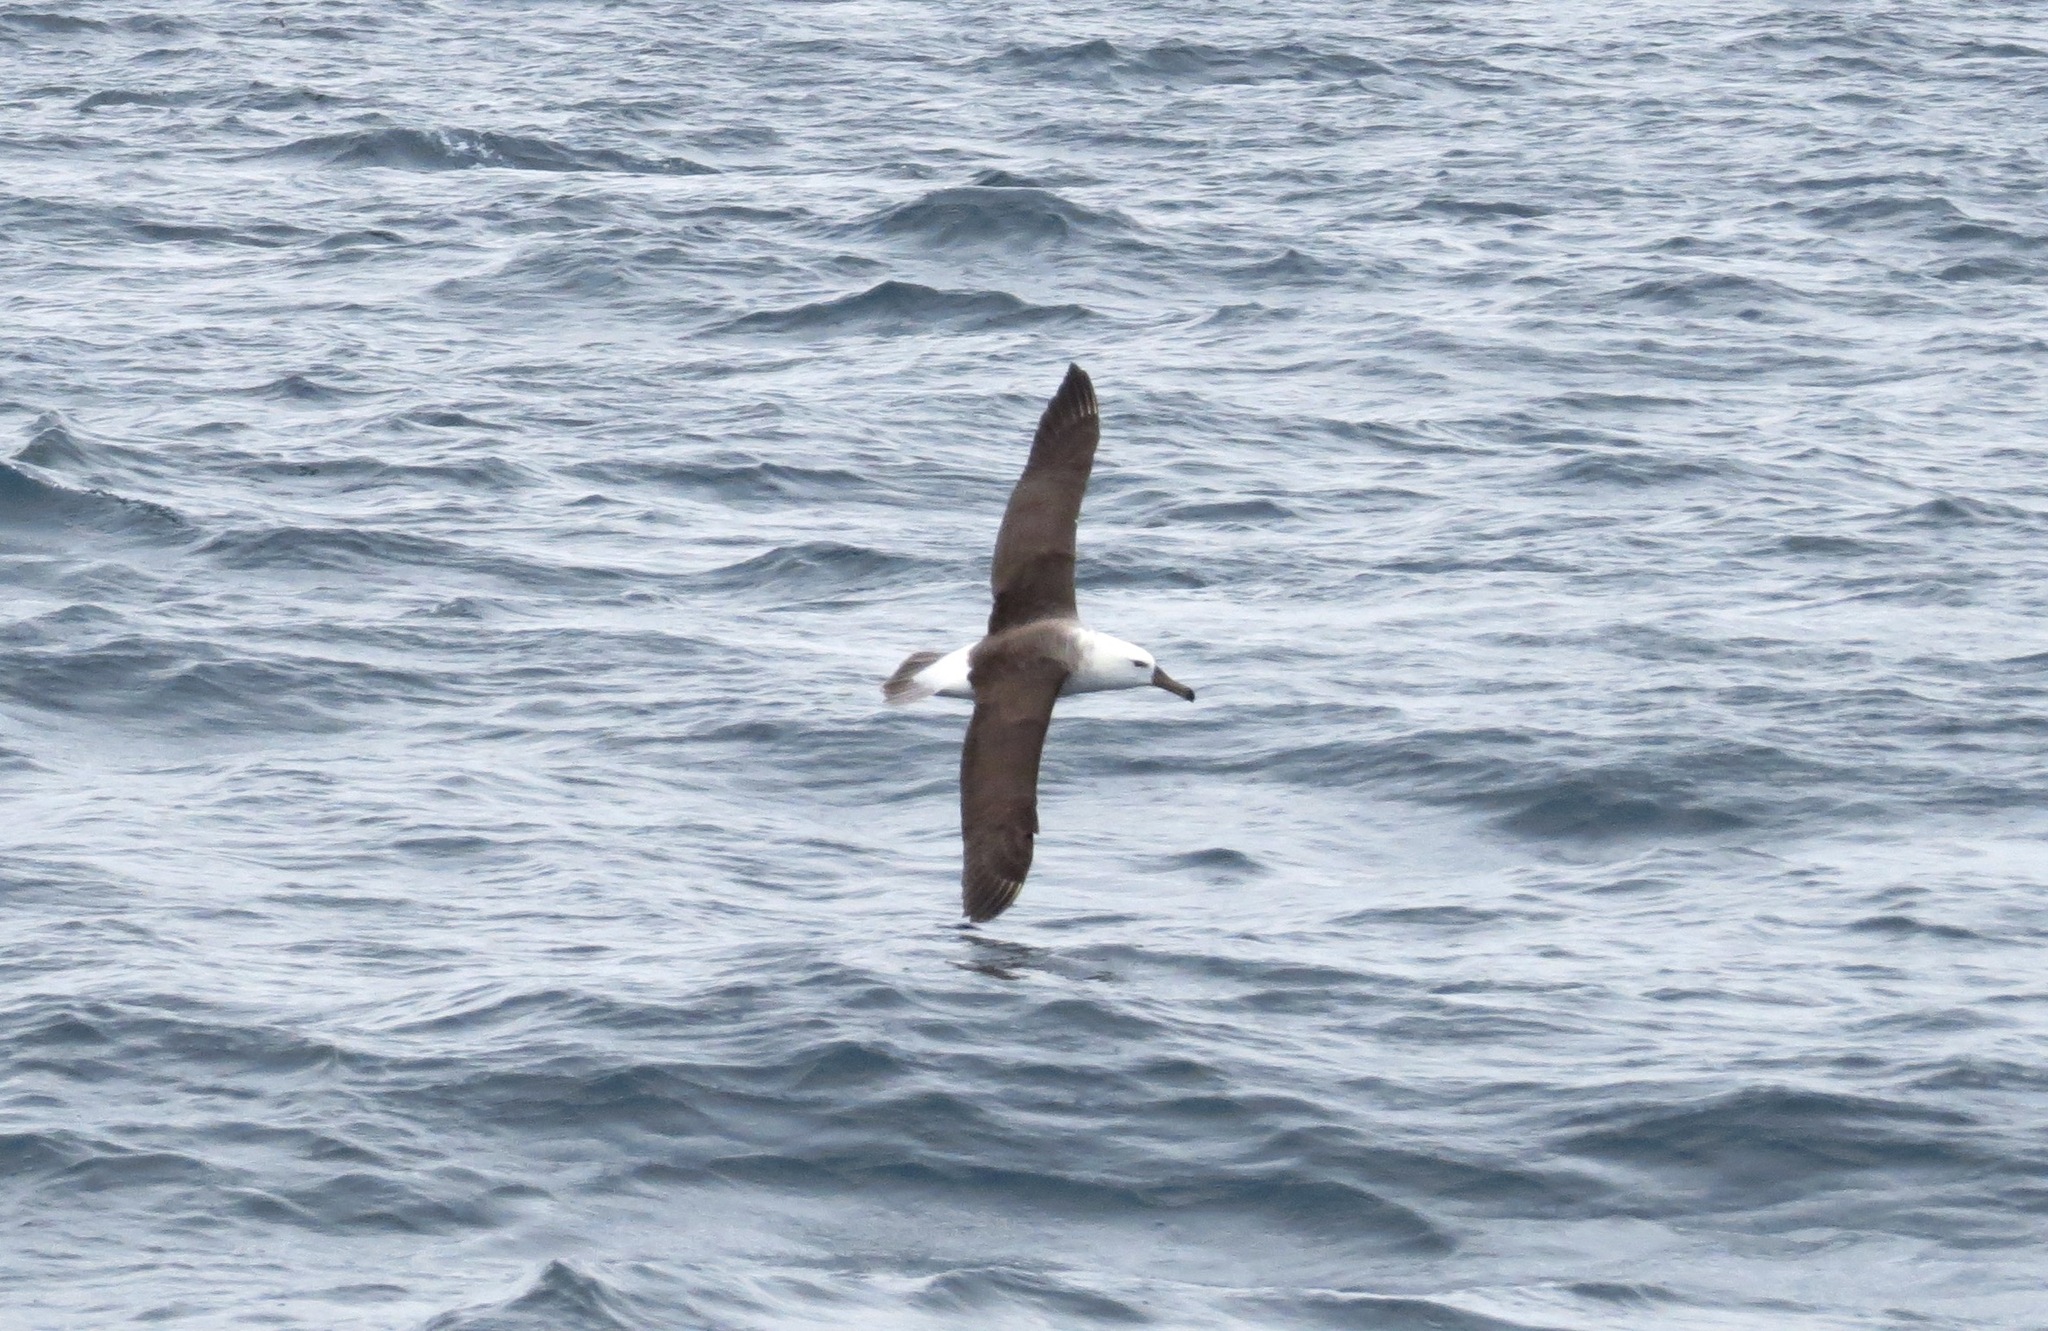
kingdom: Animalia
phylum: Chordata
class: Aves
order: Procellariiformes
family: Diomedeidae
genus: Thalassarche
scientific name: Thalassarche melanophris
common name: Black-browed albatross
